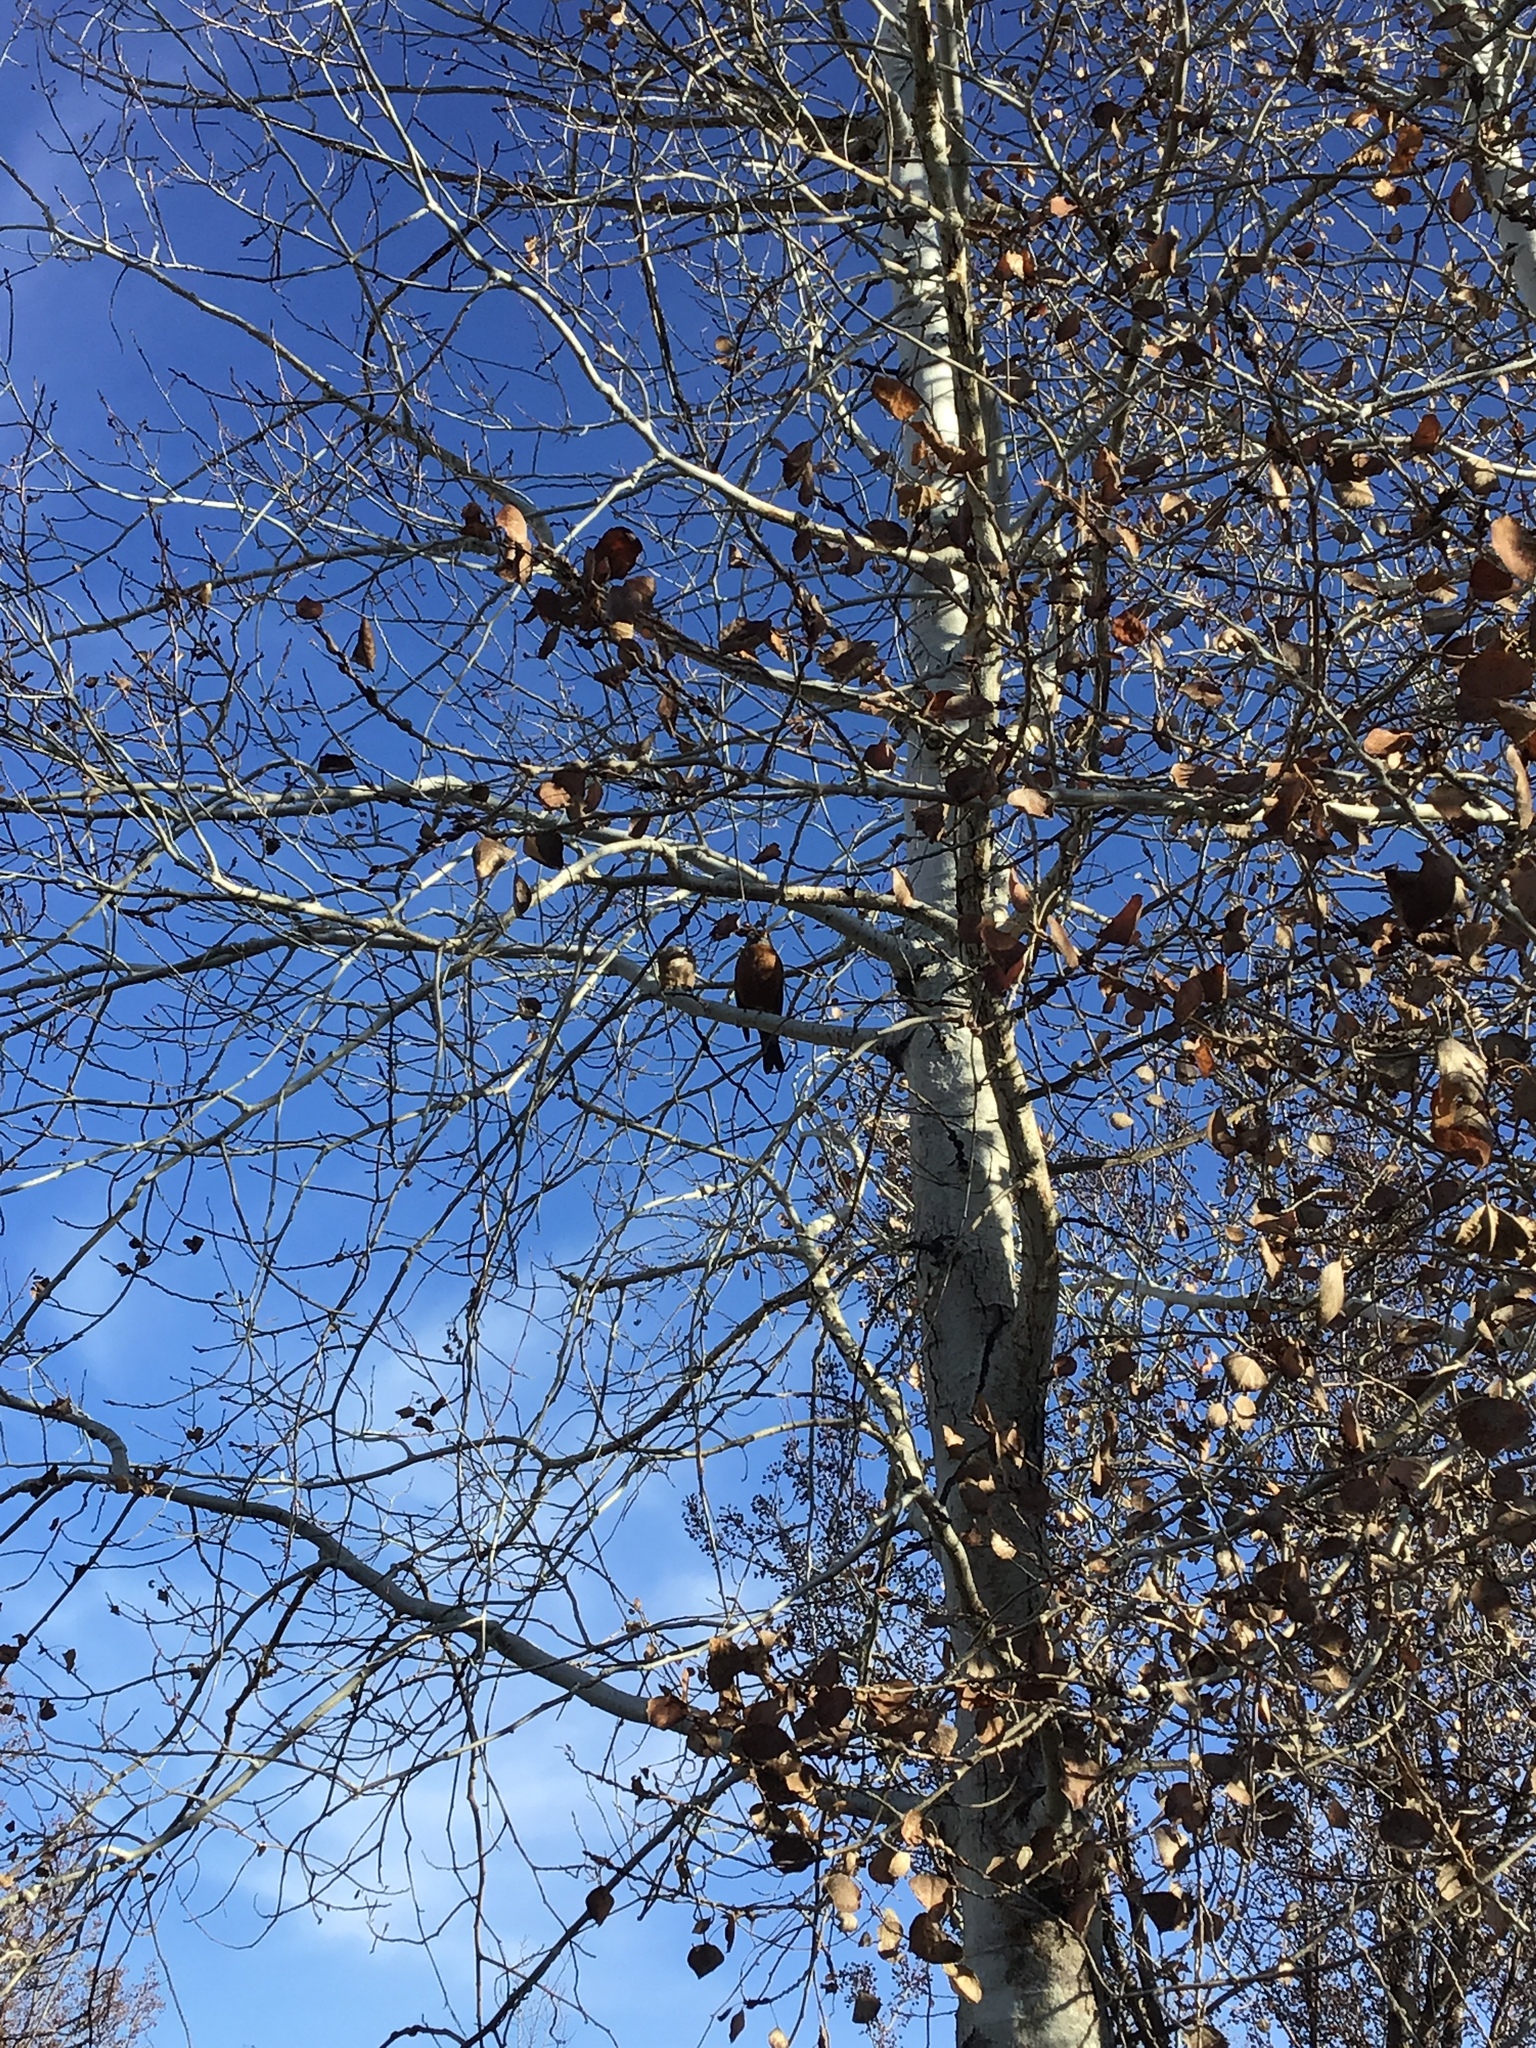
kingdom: Animalia
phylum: Chordata
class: Aves
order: Passeriformes
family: Turdidae
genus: Turdus
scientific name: Turdus migratorius
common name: American robin
